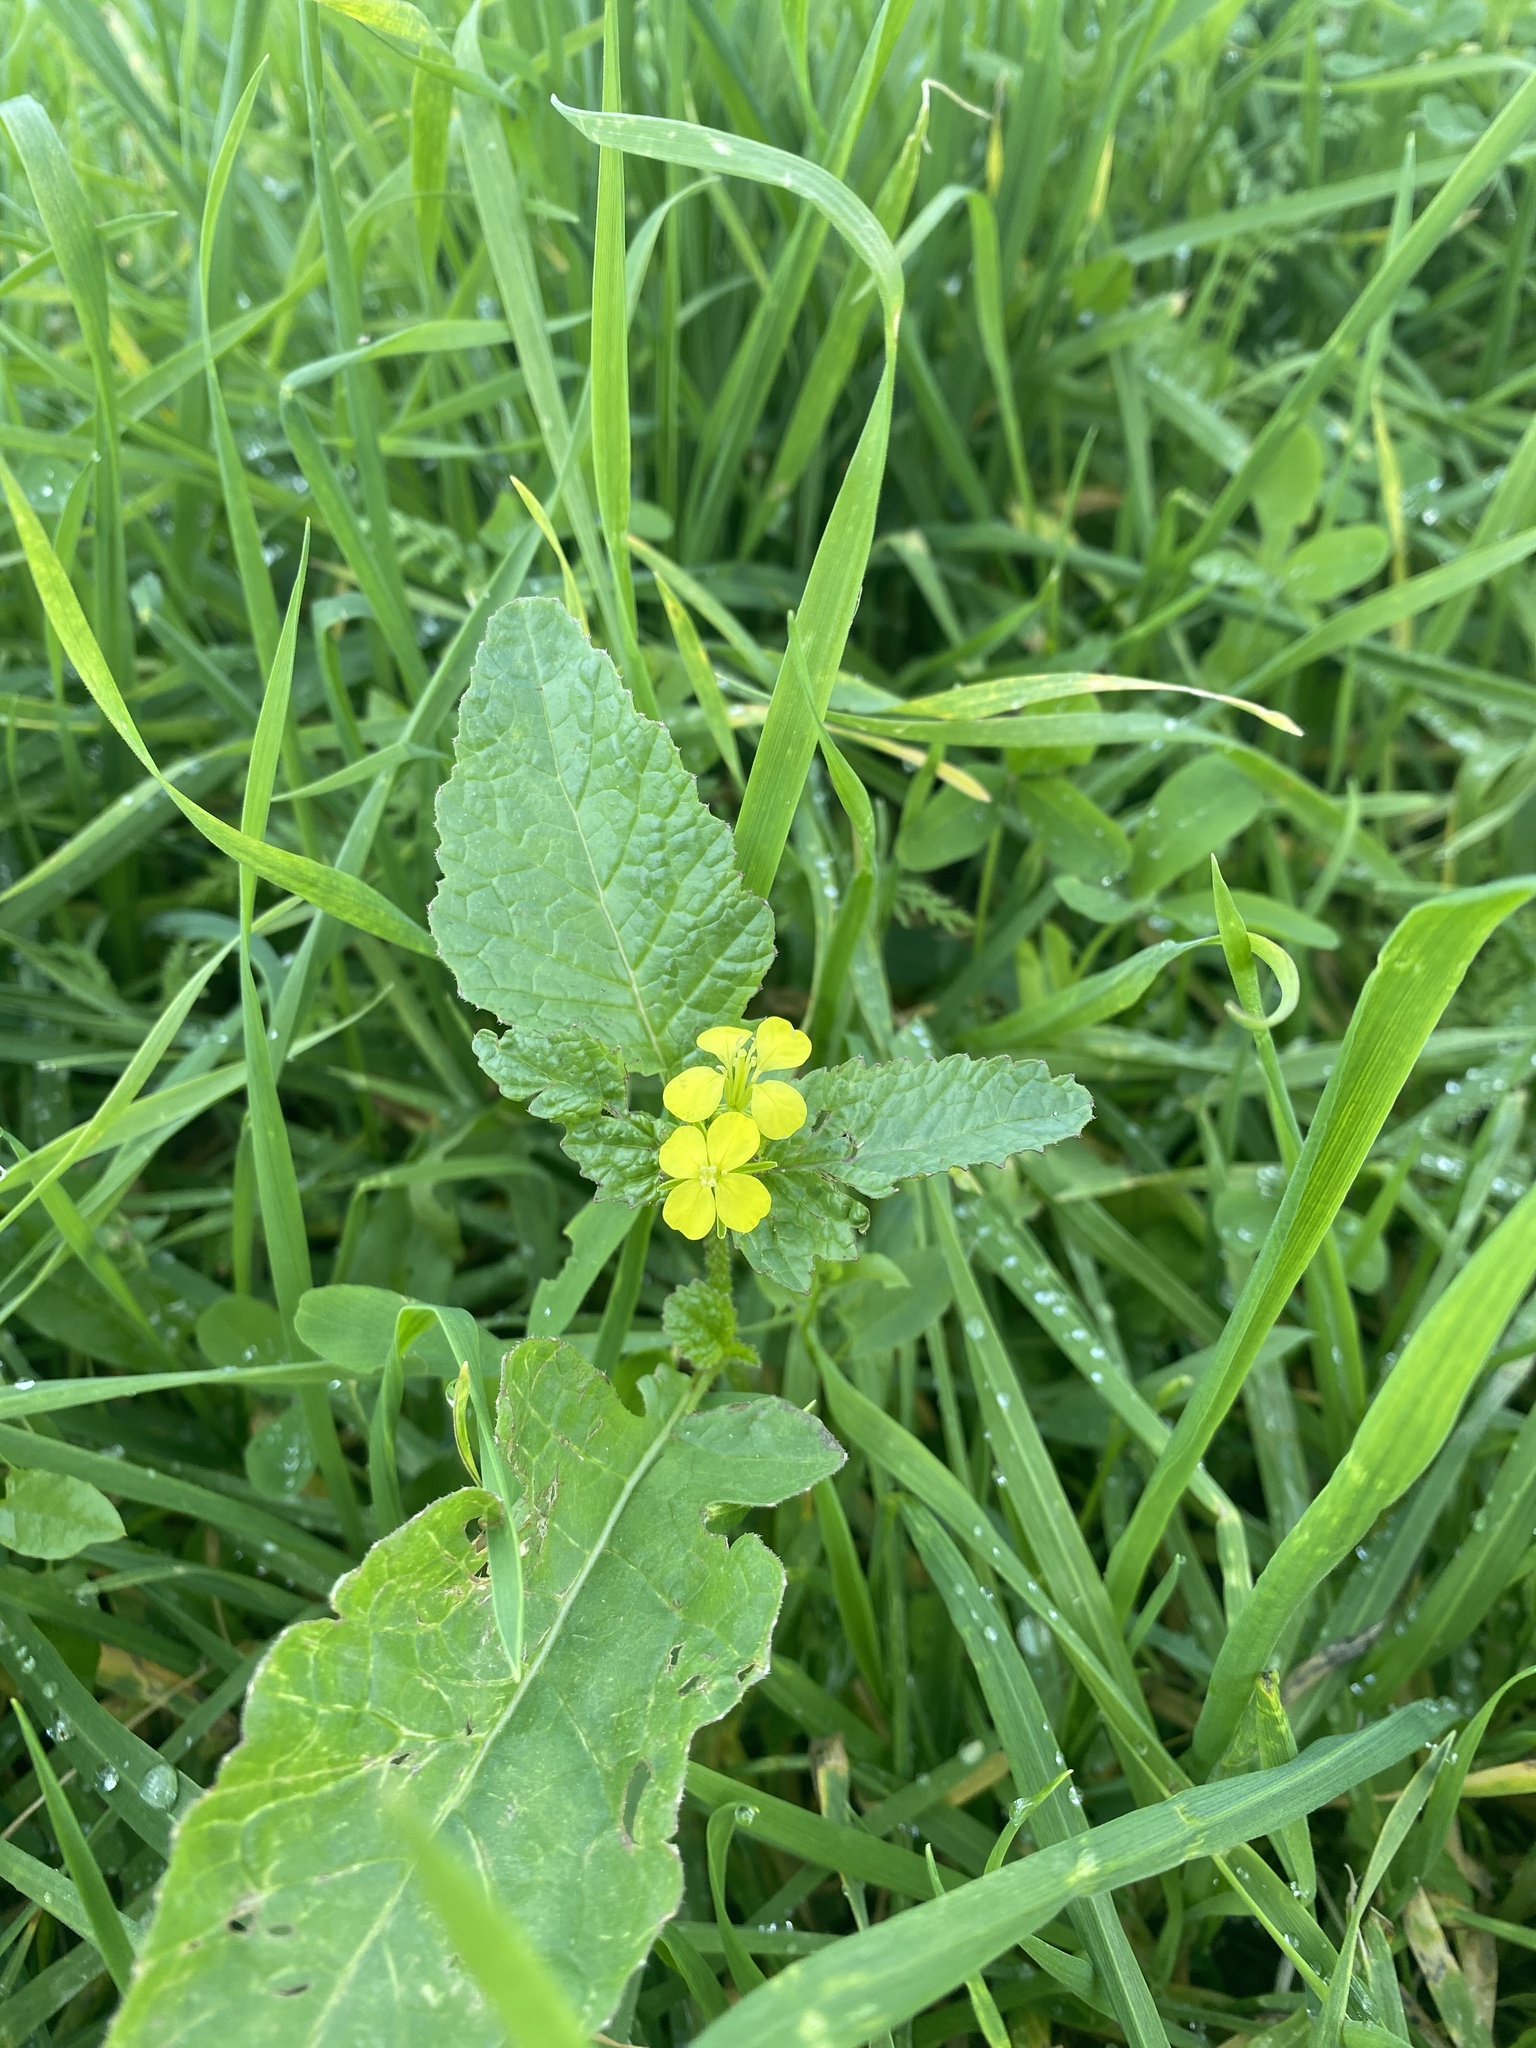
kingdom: Plantae
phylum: Tracheophyta
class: Magnoliopsida
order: Brassicales
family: Brassicaceae
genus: Sinapis
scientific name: Sinapis arvensis
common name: Charlock
